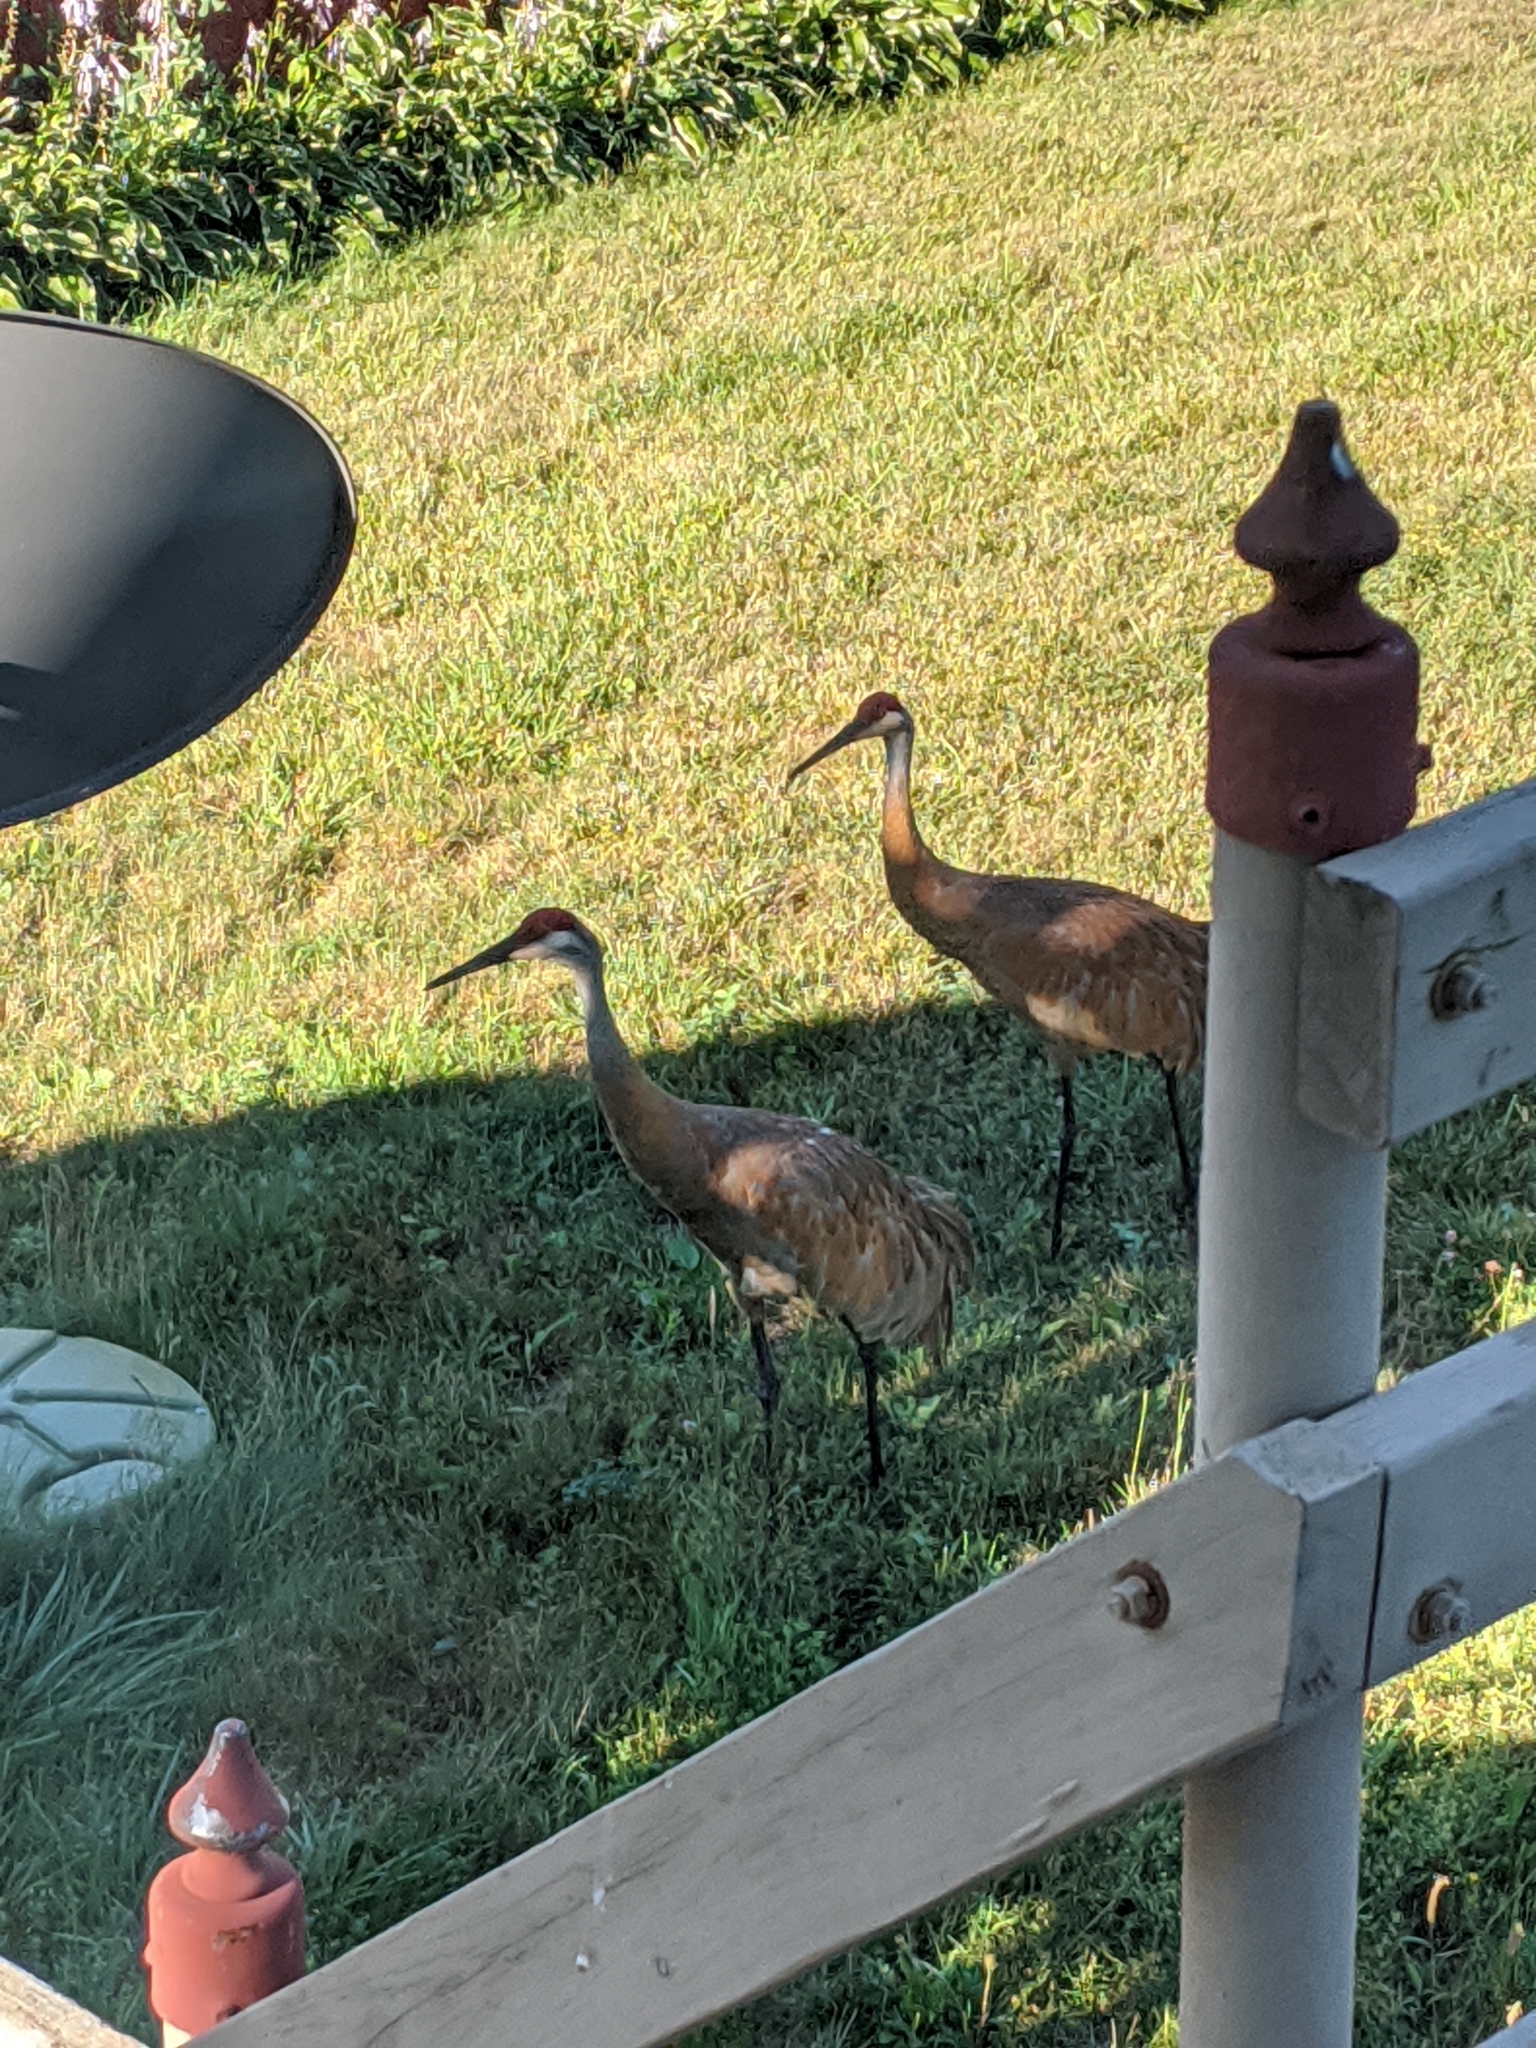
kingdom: Animalia
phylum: Chordata
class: Aves
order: Gruiformes
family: Gruidae
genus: Grus
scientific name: Grus canadensis
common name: Sandhill crane
